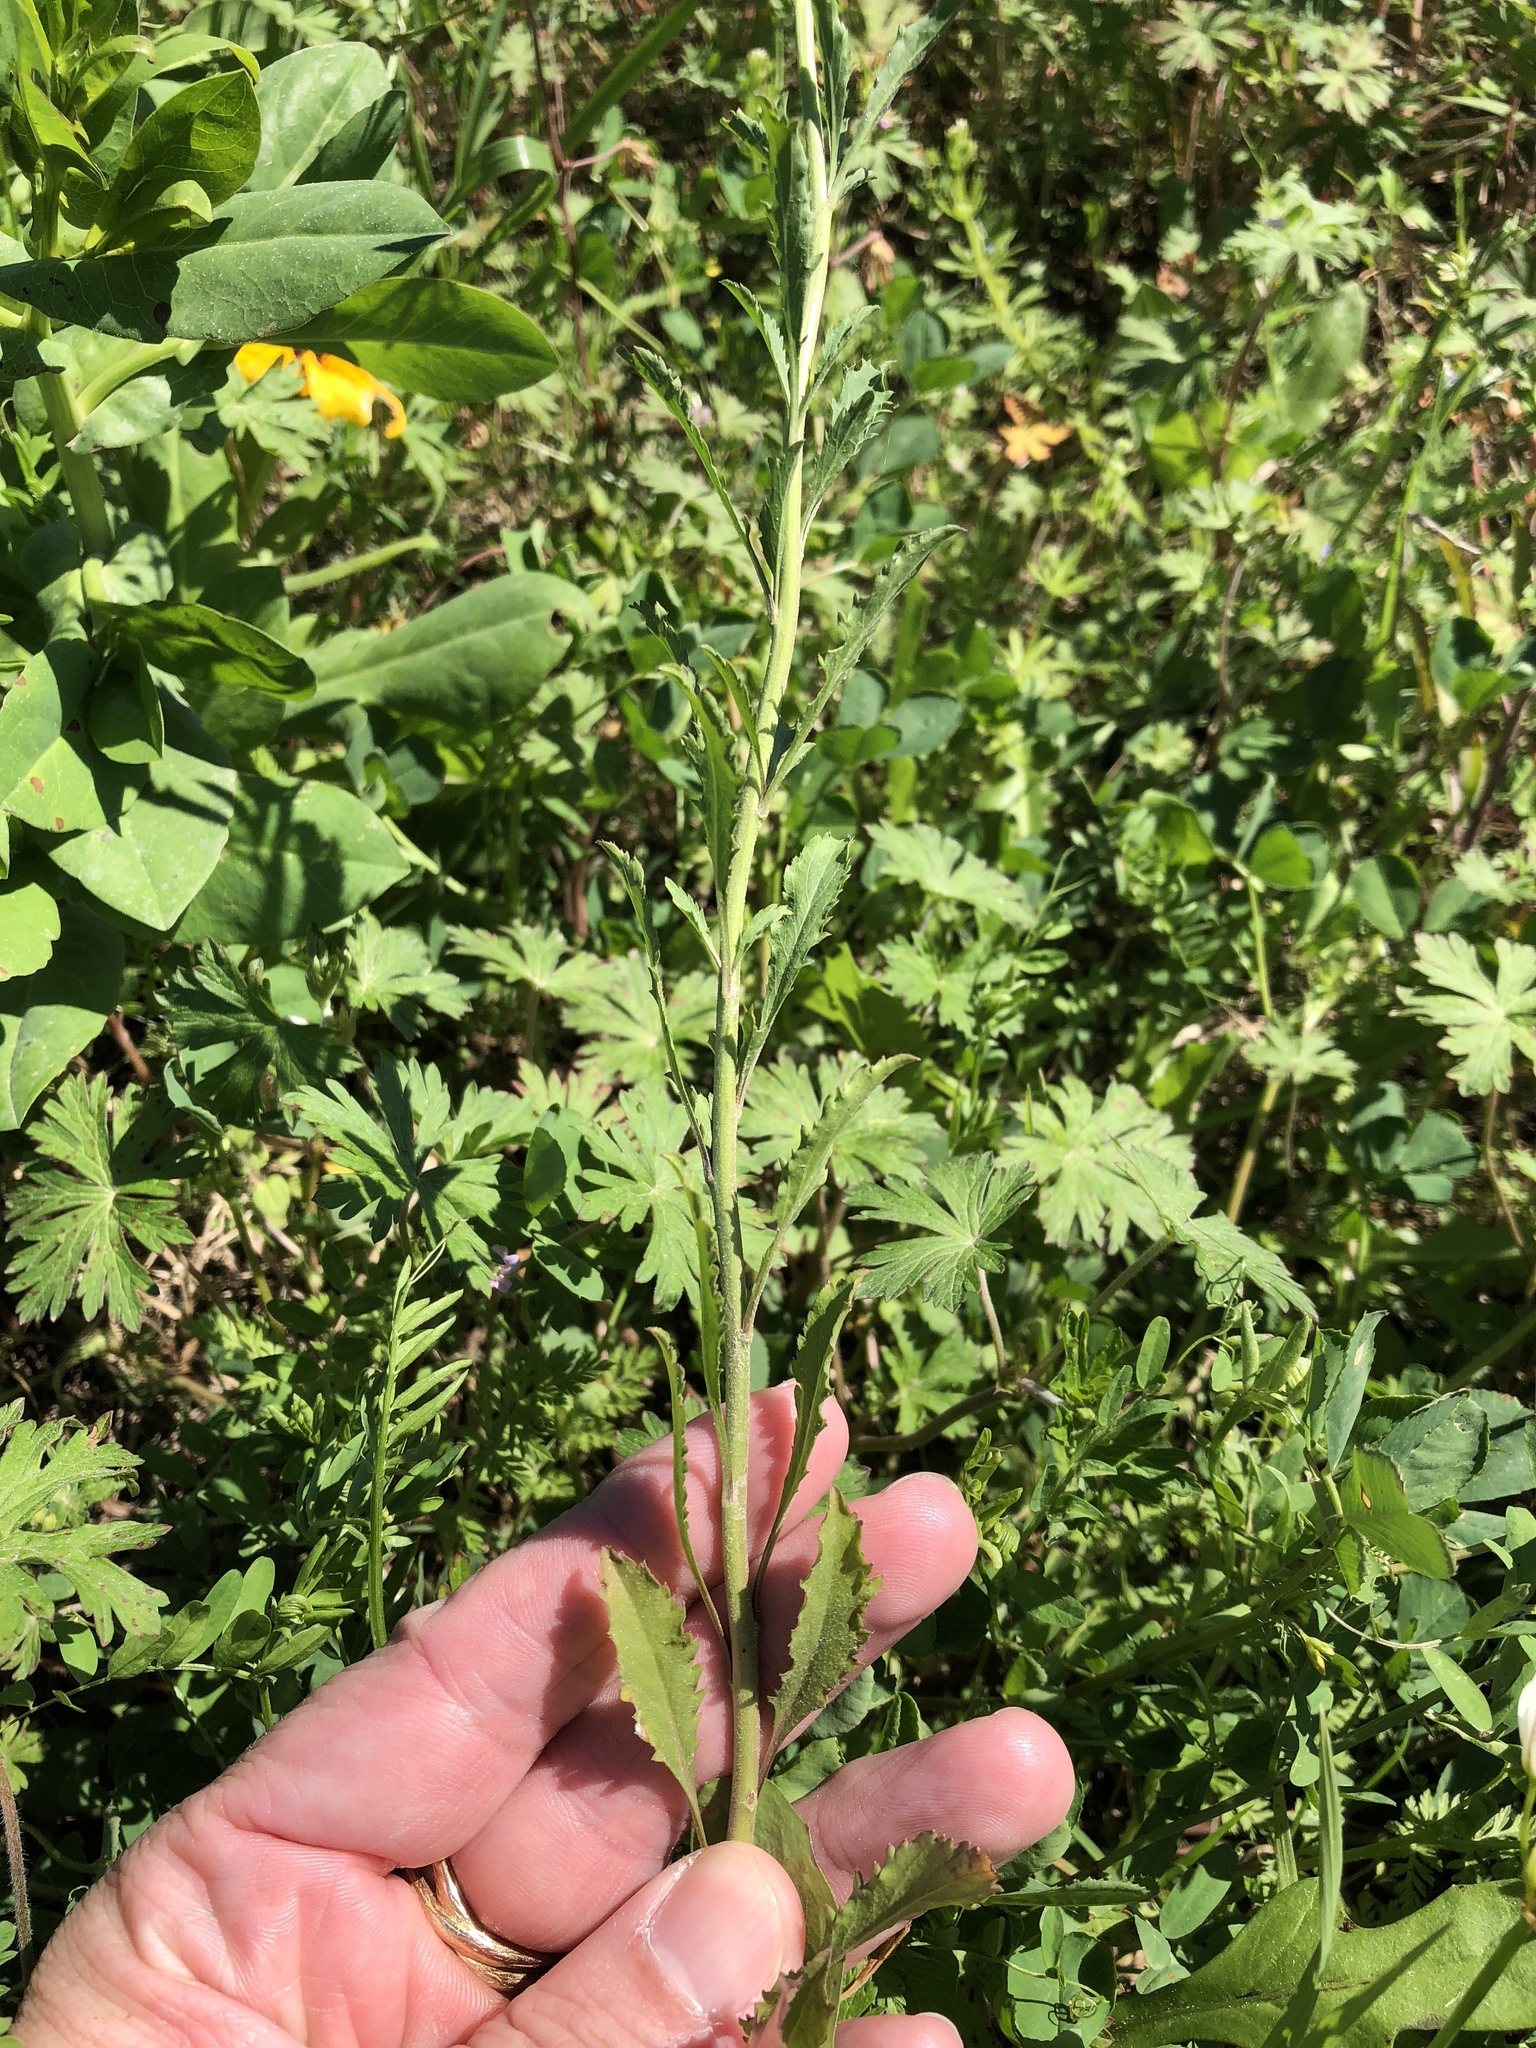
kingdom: Plantae
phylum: Tracheophyta
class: Magnoliopsida
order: Brassicales
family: Brassicaceae
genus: Lepidium
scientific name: Lepidium virginicum
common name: Least pepperwort
